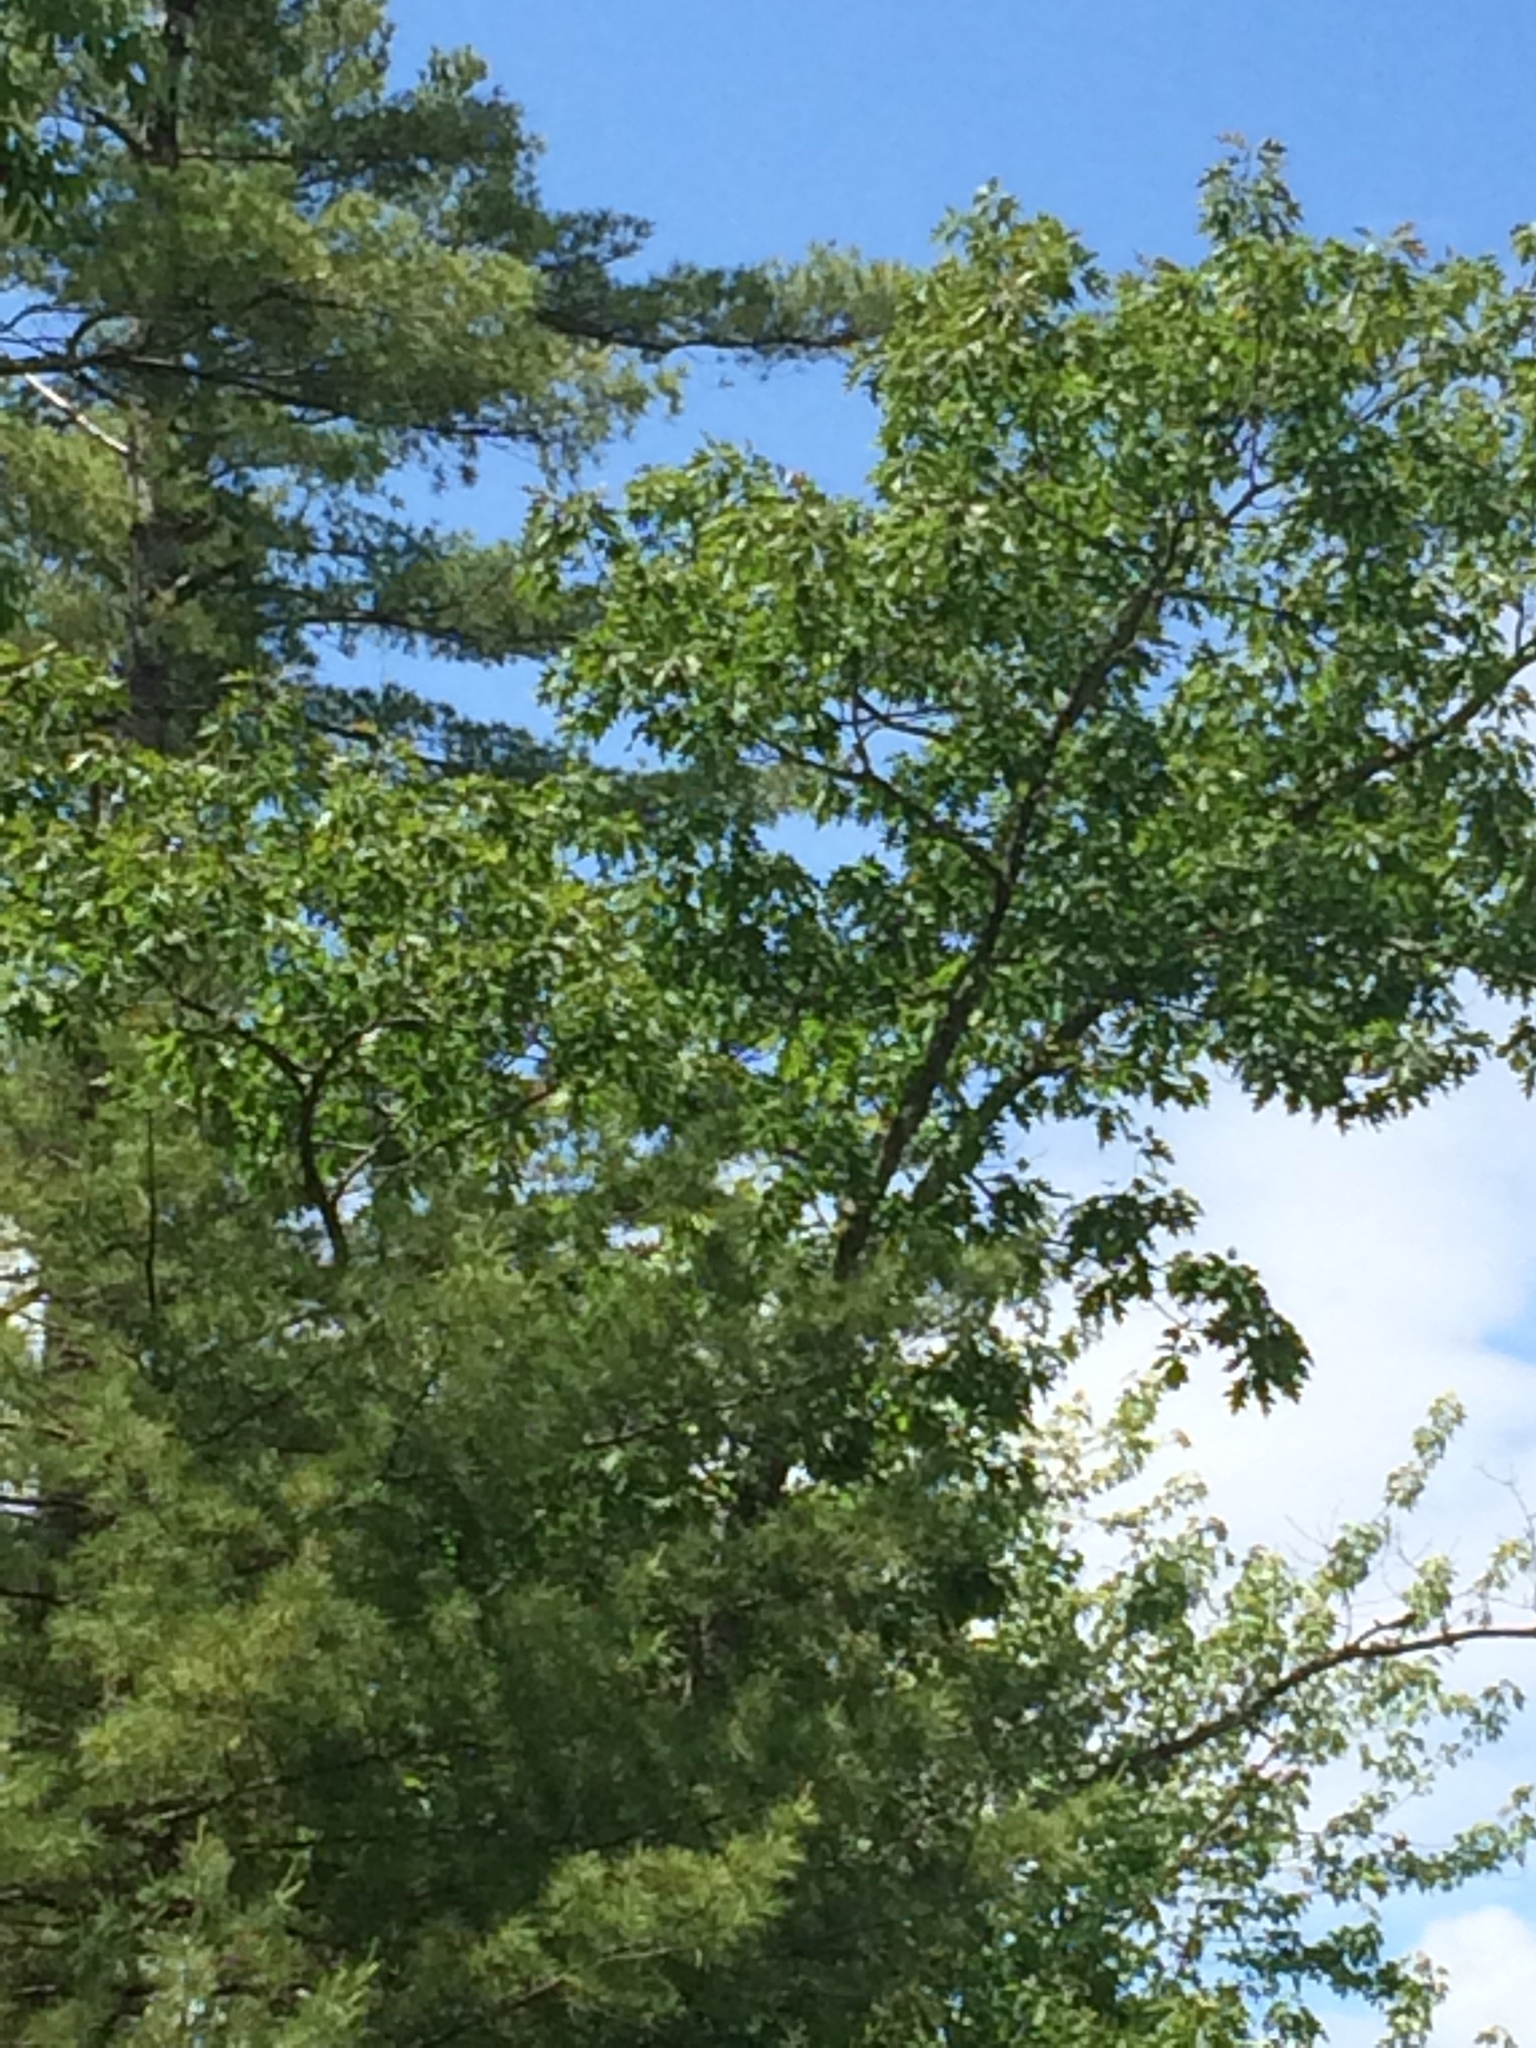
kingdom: Plantae
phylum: Tracheophyta
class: Magnoliopsida
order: Fagales
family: Fagaceae
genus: Quercus
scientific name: Quercus rubra
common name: Red oak
